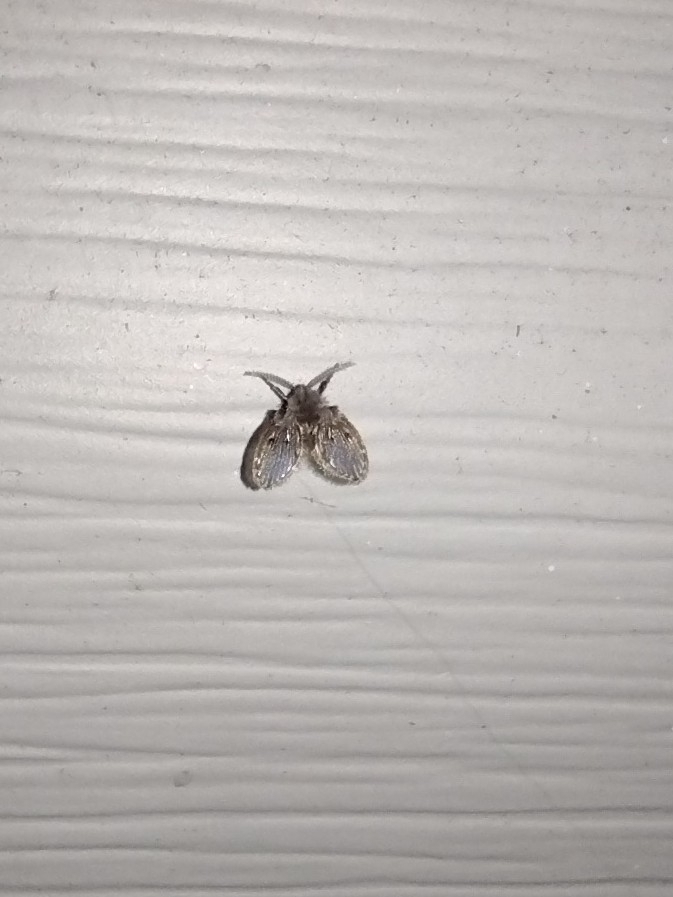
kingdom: Animalia
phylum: Arthropoda
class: Insecta
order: Diptera
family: Psychodidae
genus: Clogmia
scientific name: Clogmia albipunctatus
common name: White-spotted moth fly
